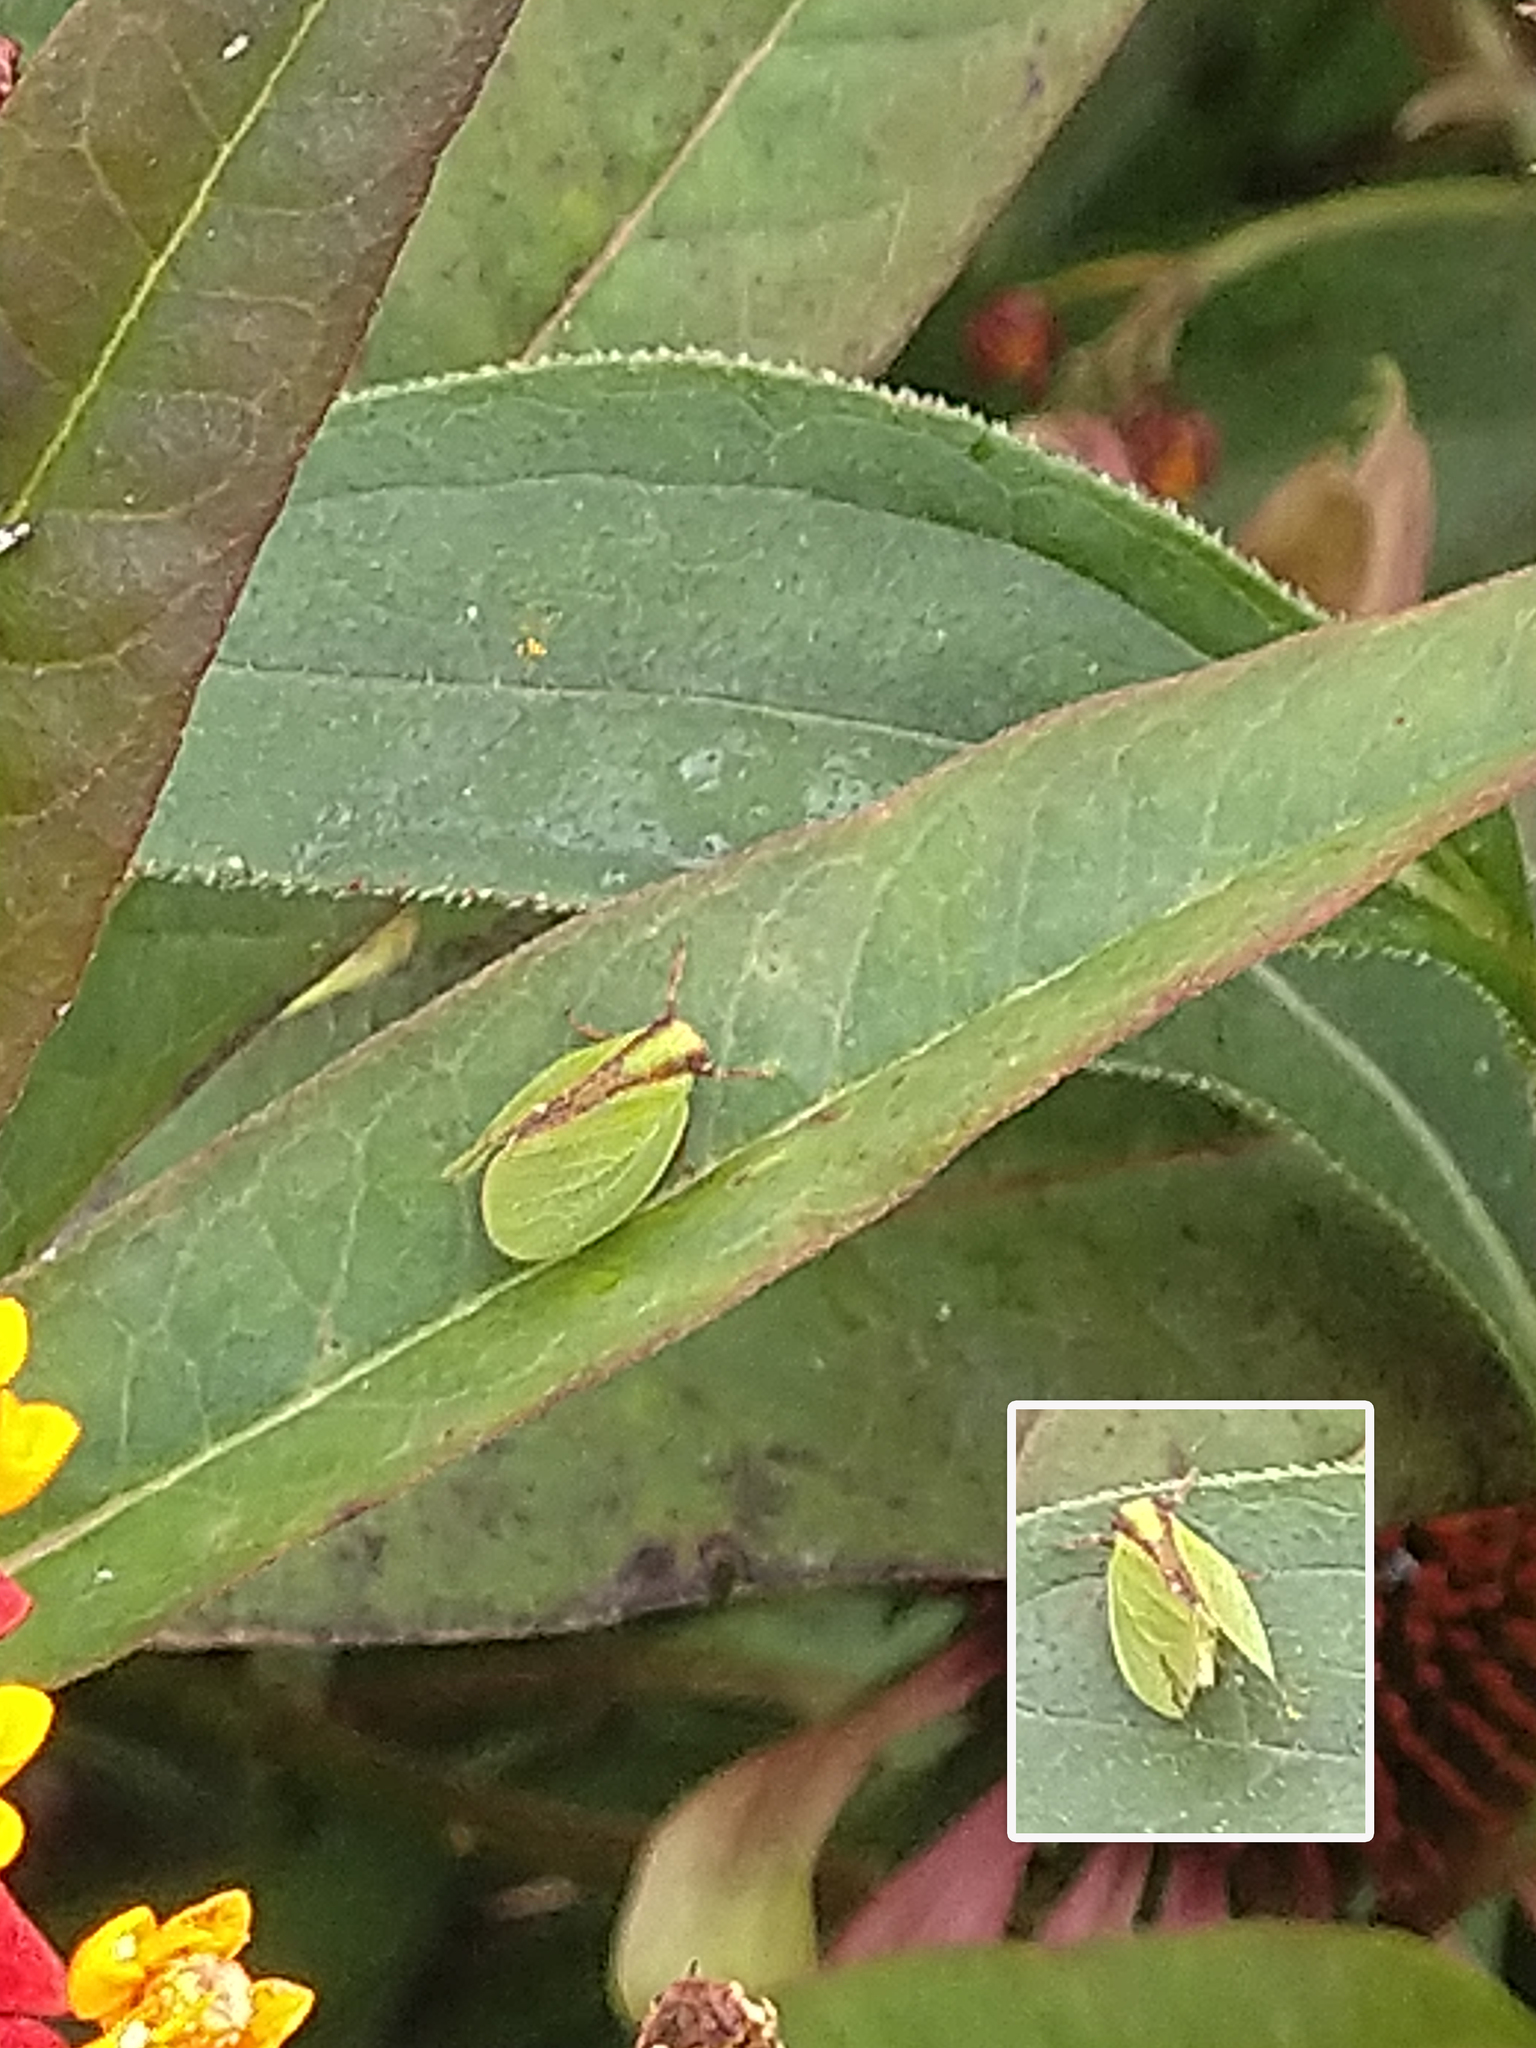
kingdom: Animalia
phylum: Arthropoda
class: Insecta
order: Hemiptera
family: Acanaloniidae
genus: Acanalonia
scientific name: Acanalonia bivittata
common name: Two-striped planthopper
